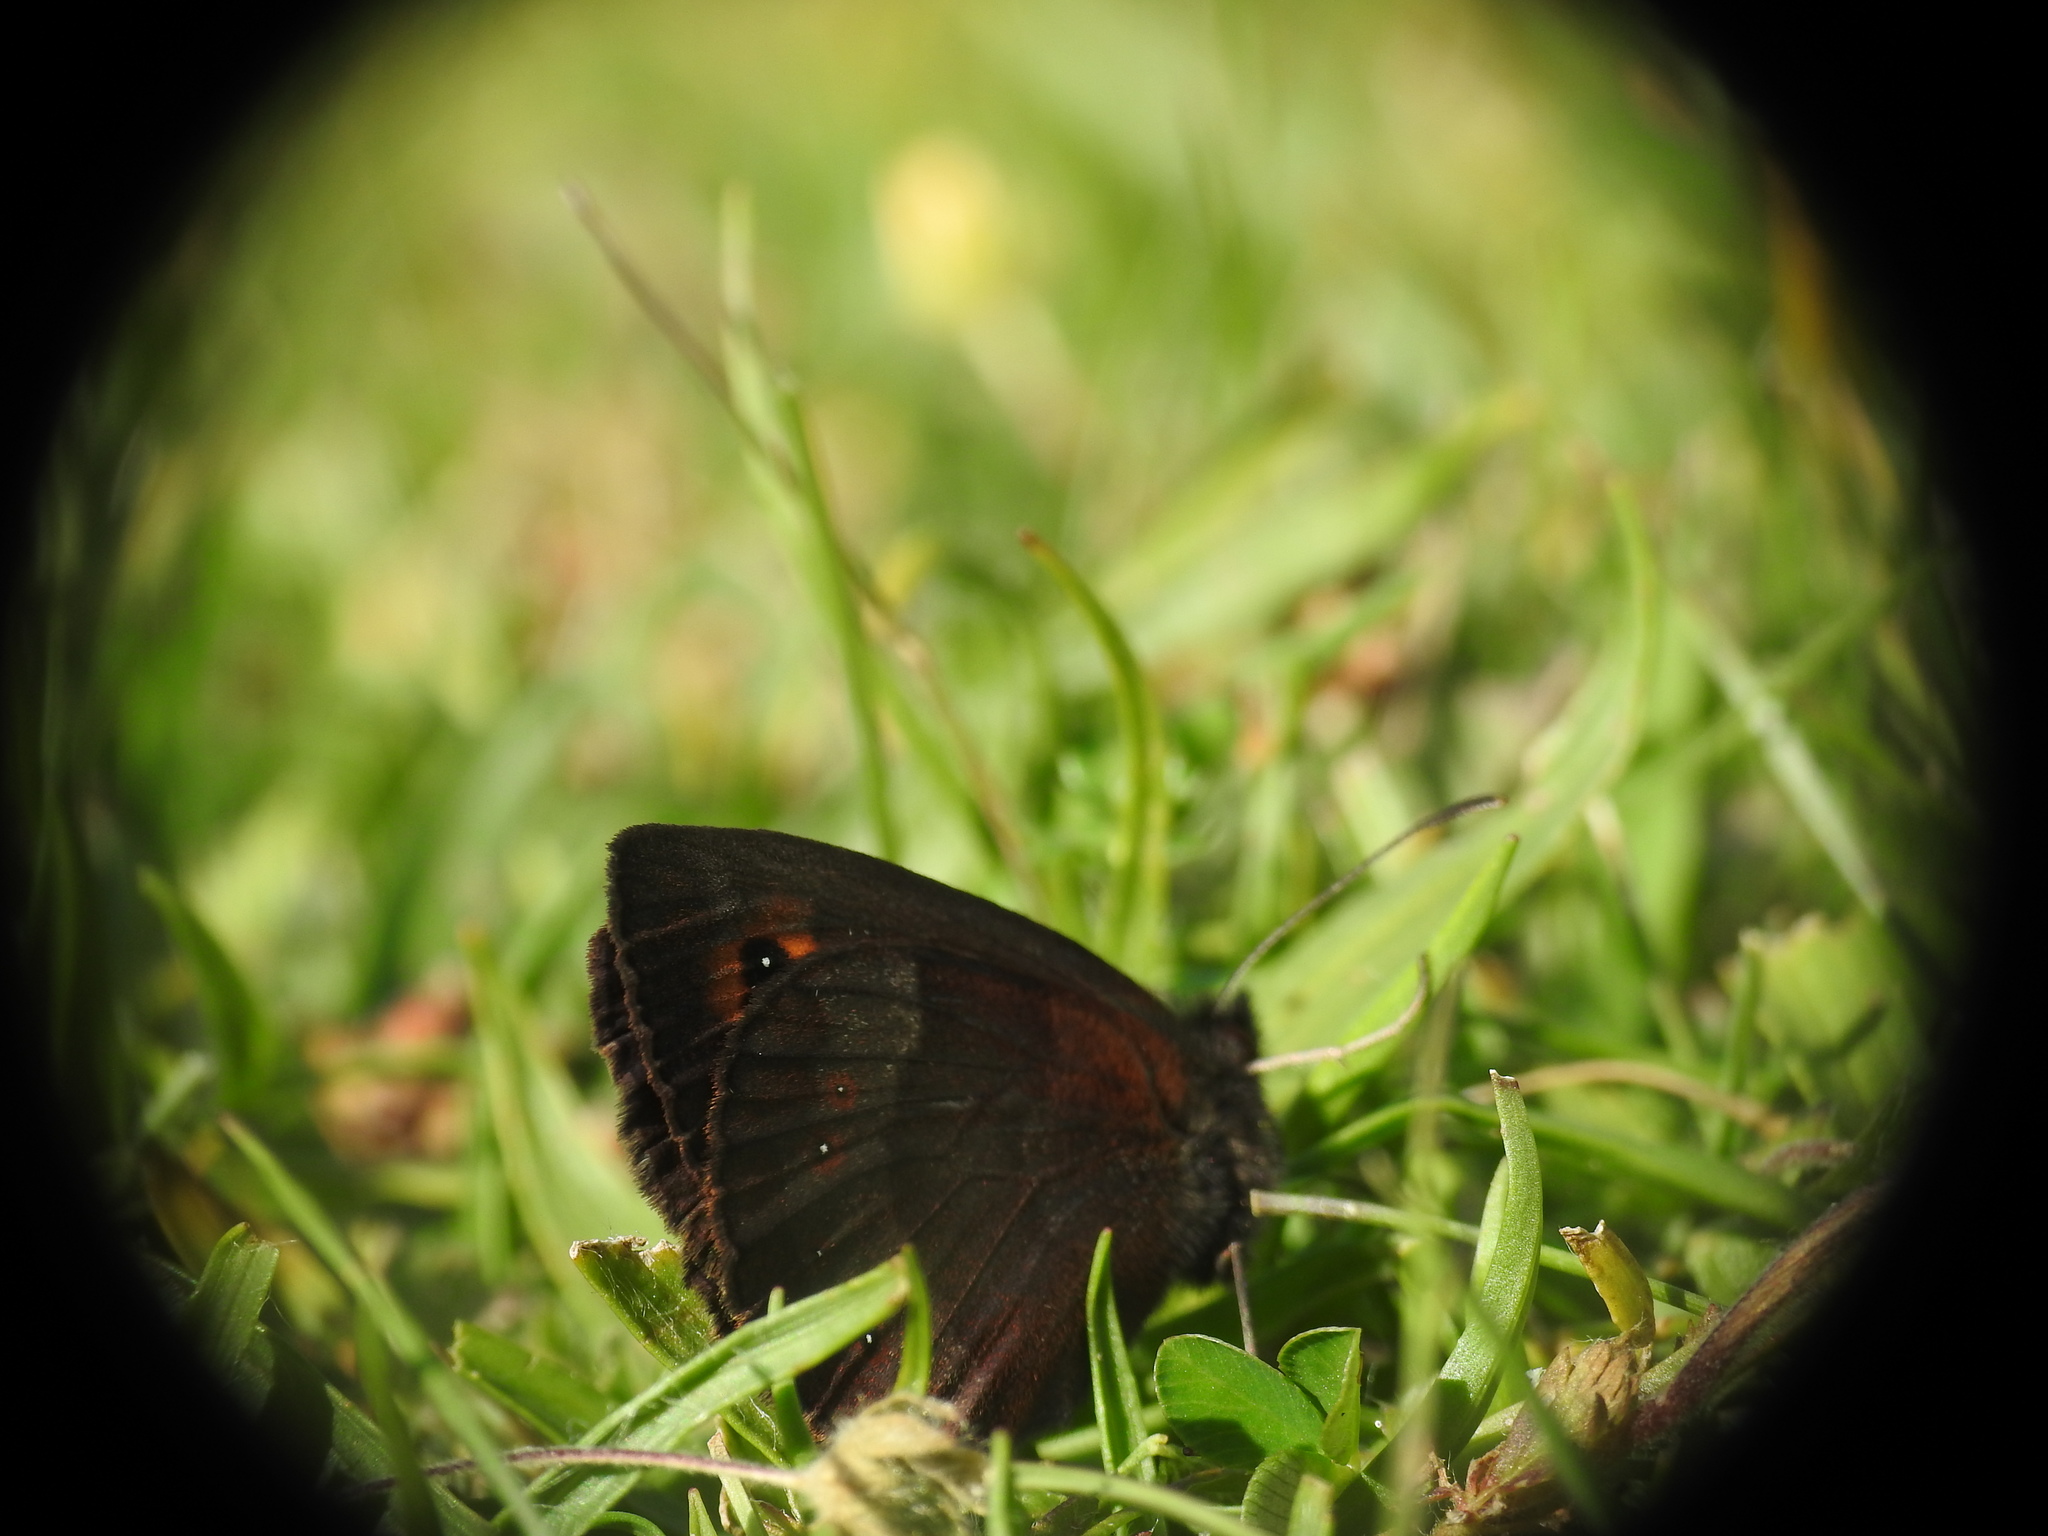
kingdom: Animalia
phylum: Arthropoda
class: Insecta
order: Lepidoptera
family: Nymphalidae
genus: Erebia
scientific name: Erebia aethiops
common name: Scotch argus
